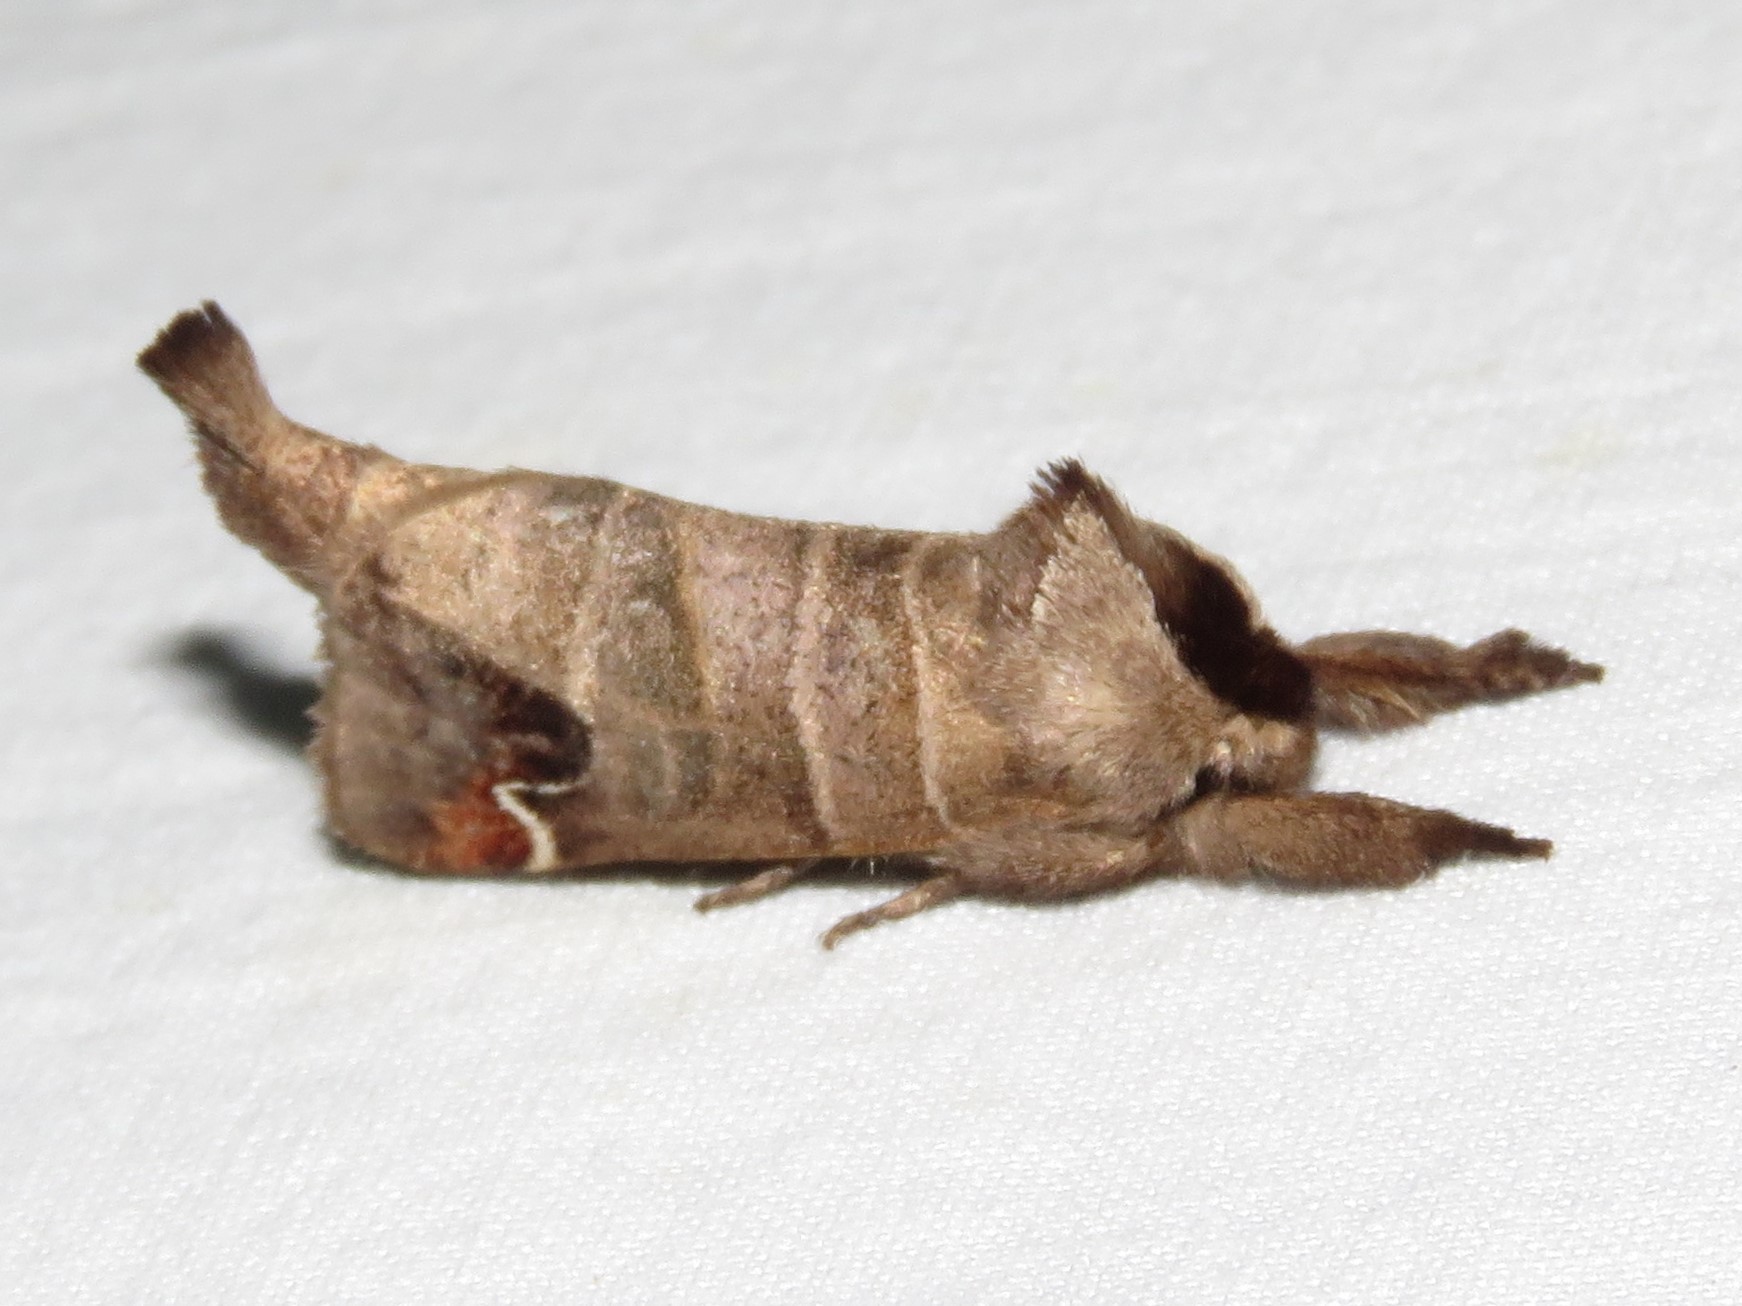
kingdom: Animalia
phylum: Arthropoda
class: Insecta
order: Lepidoptera
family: Notodontidae
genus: Clostera
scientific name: Clostera albosigma
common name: Sigmoid prominent
